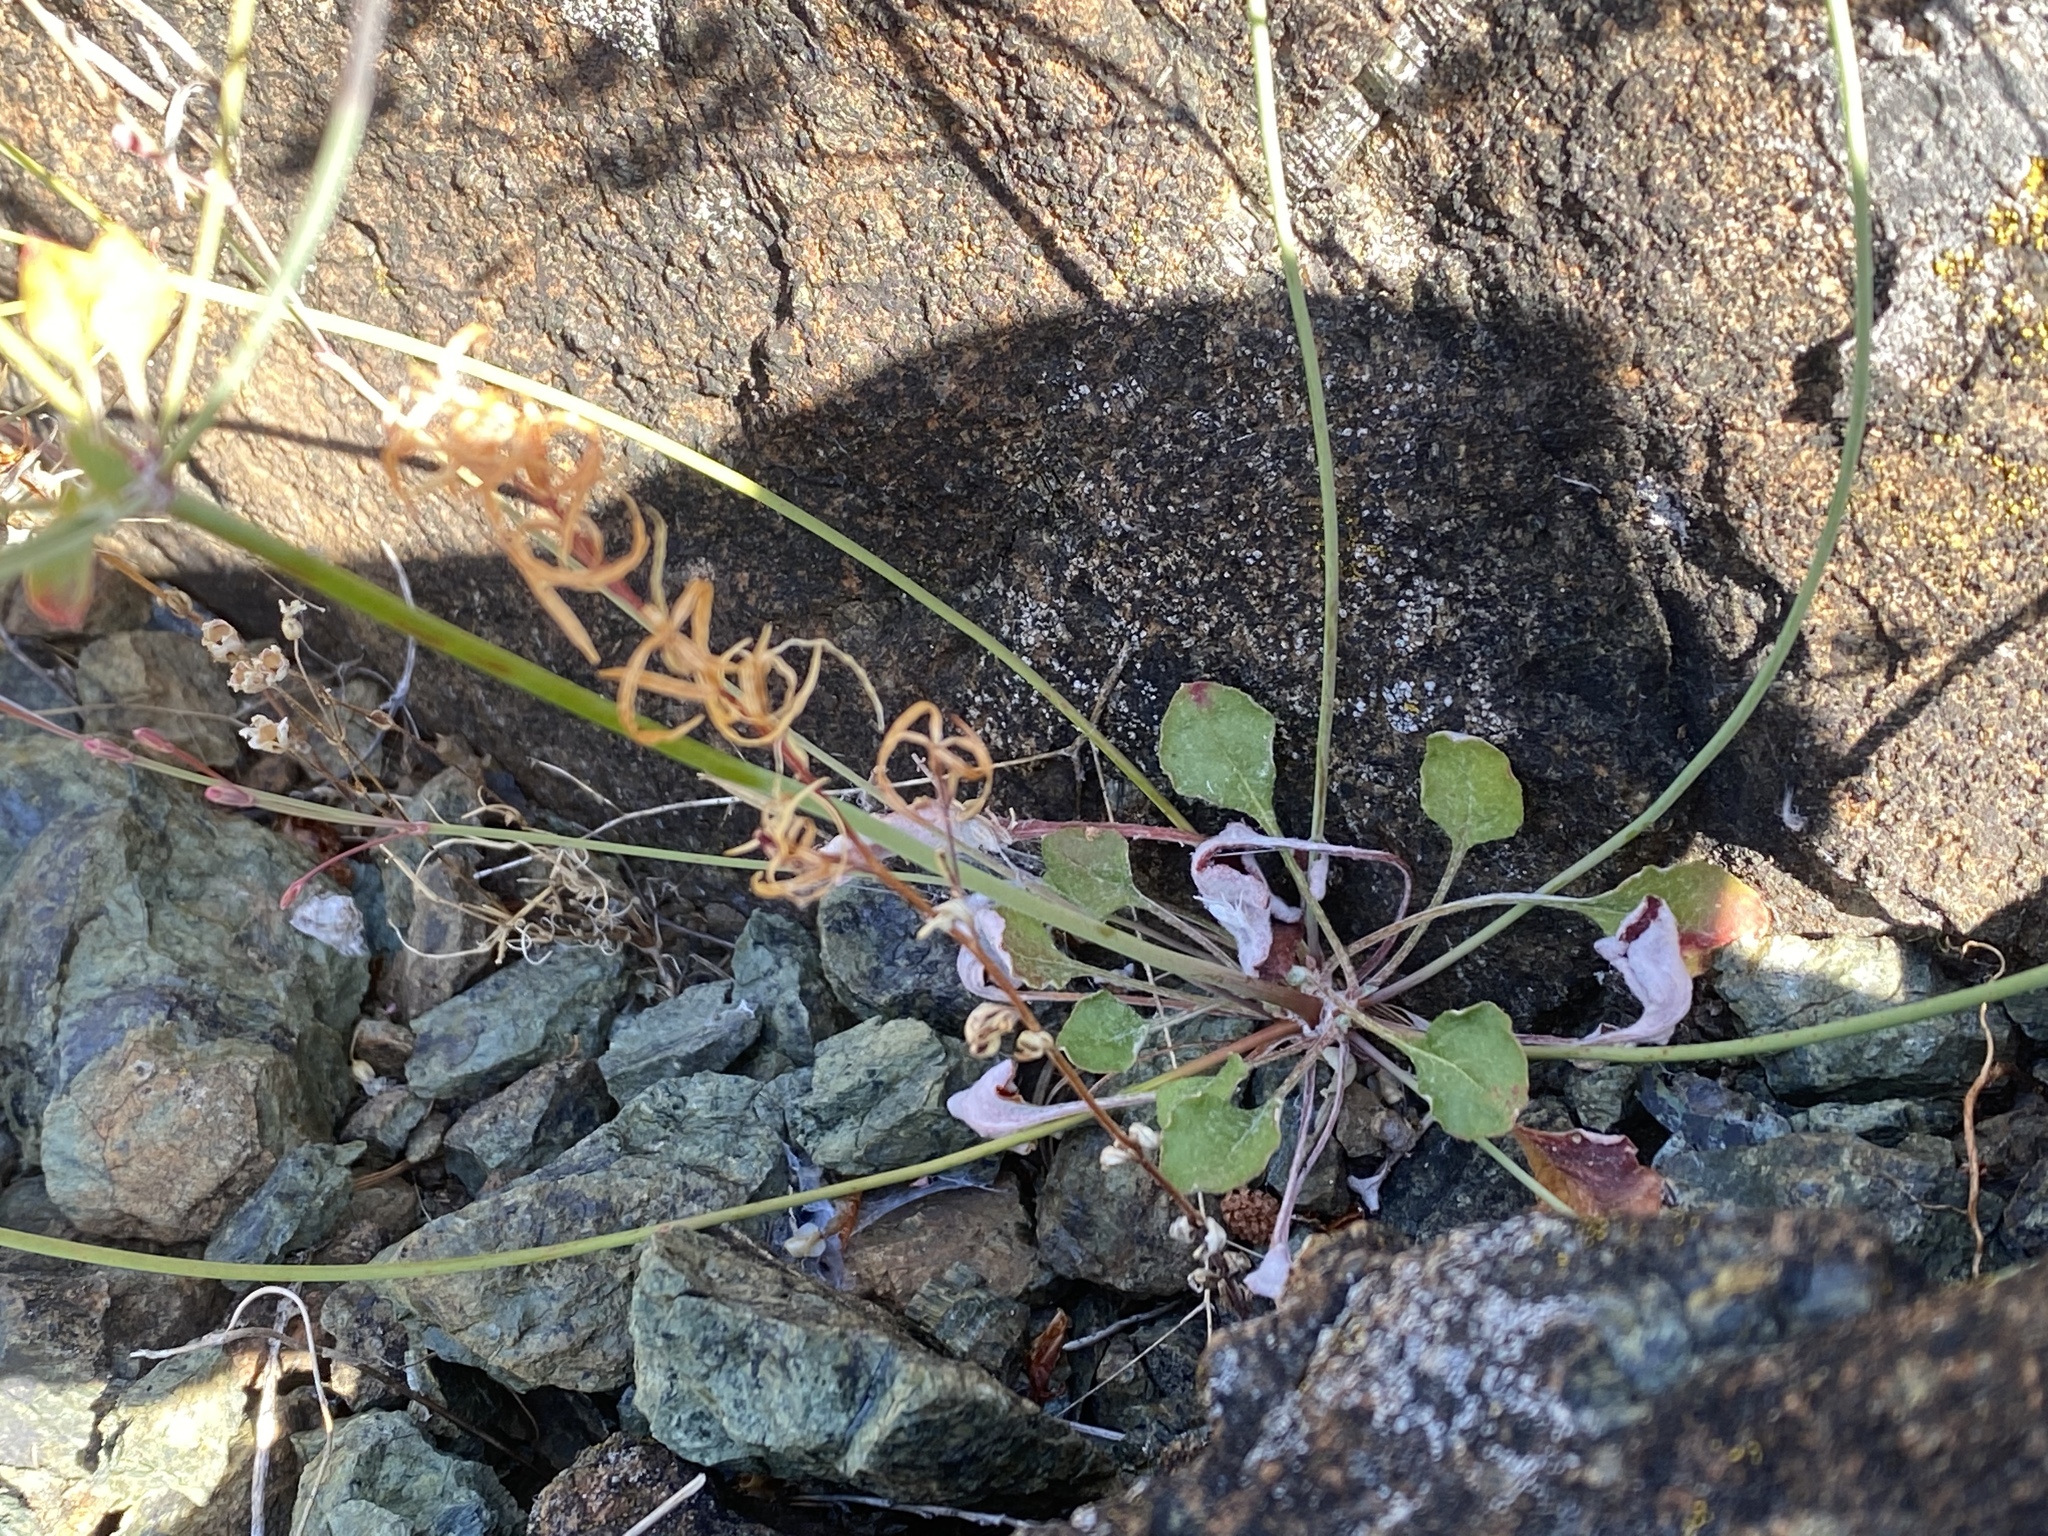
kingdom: Plantae
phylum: Tracheophyta
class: Magnoliopsida
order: Caryophyllales
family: Polygonaceae
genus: Eriogonum
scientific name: Eriogonum luteolum
